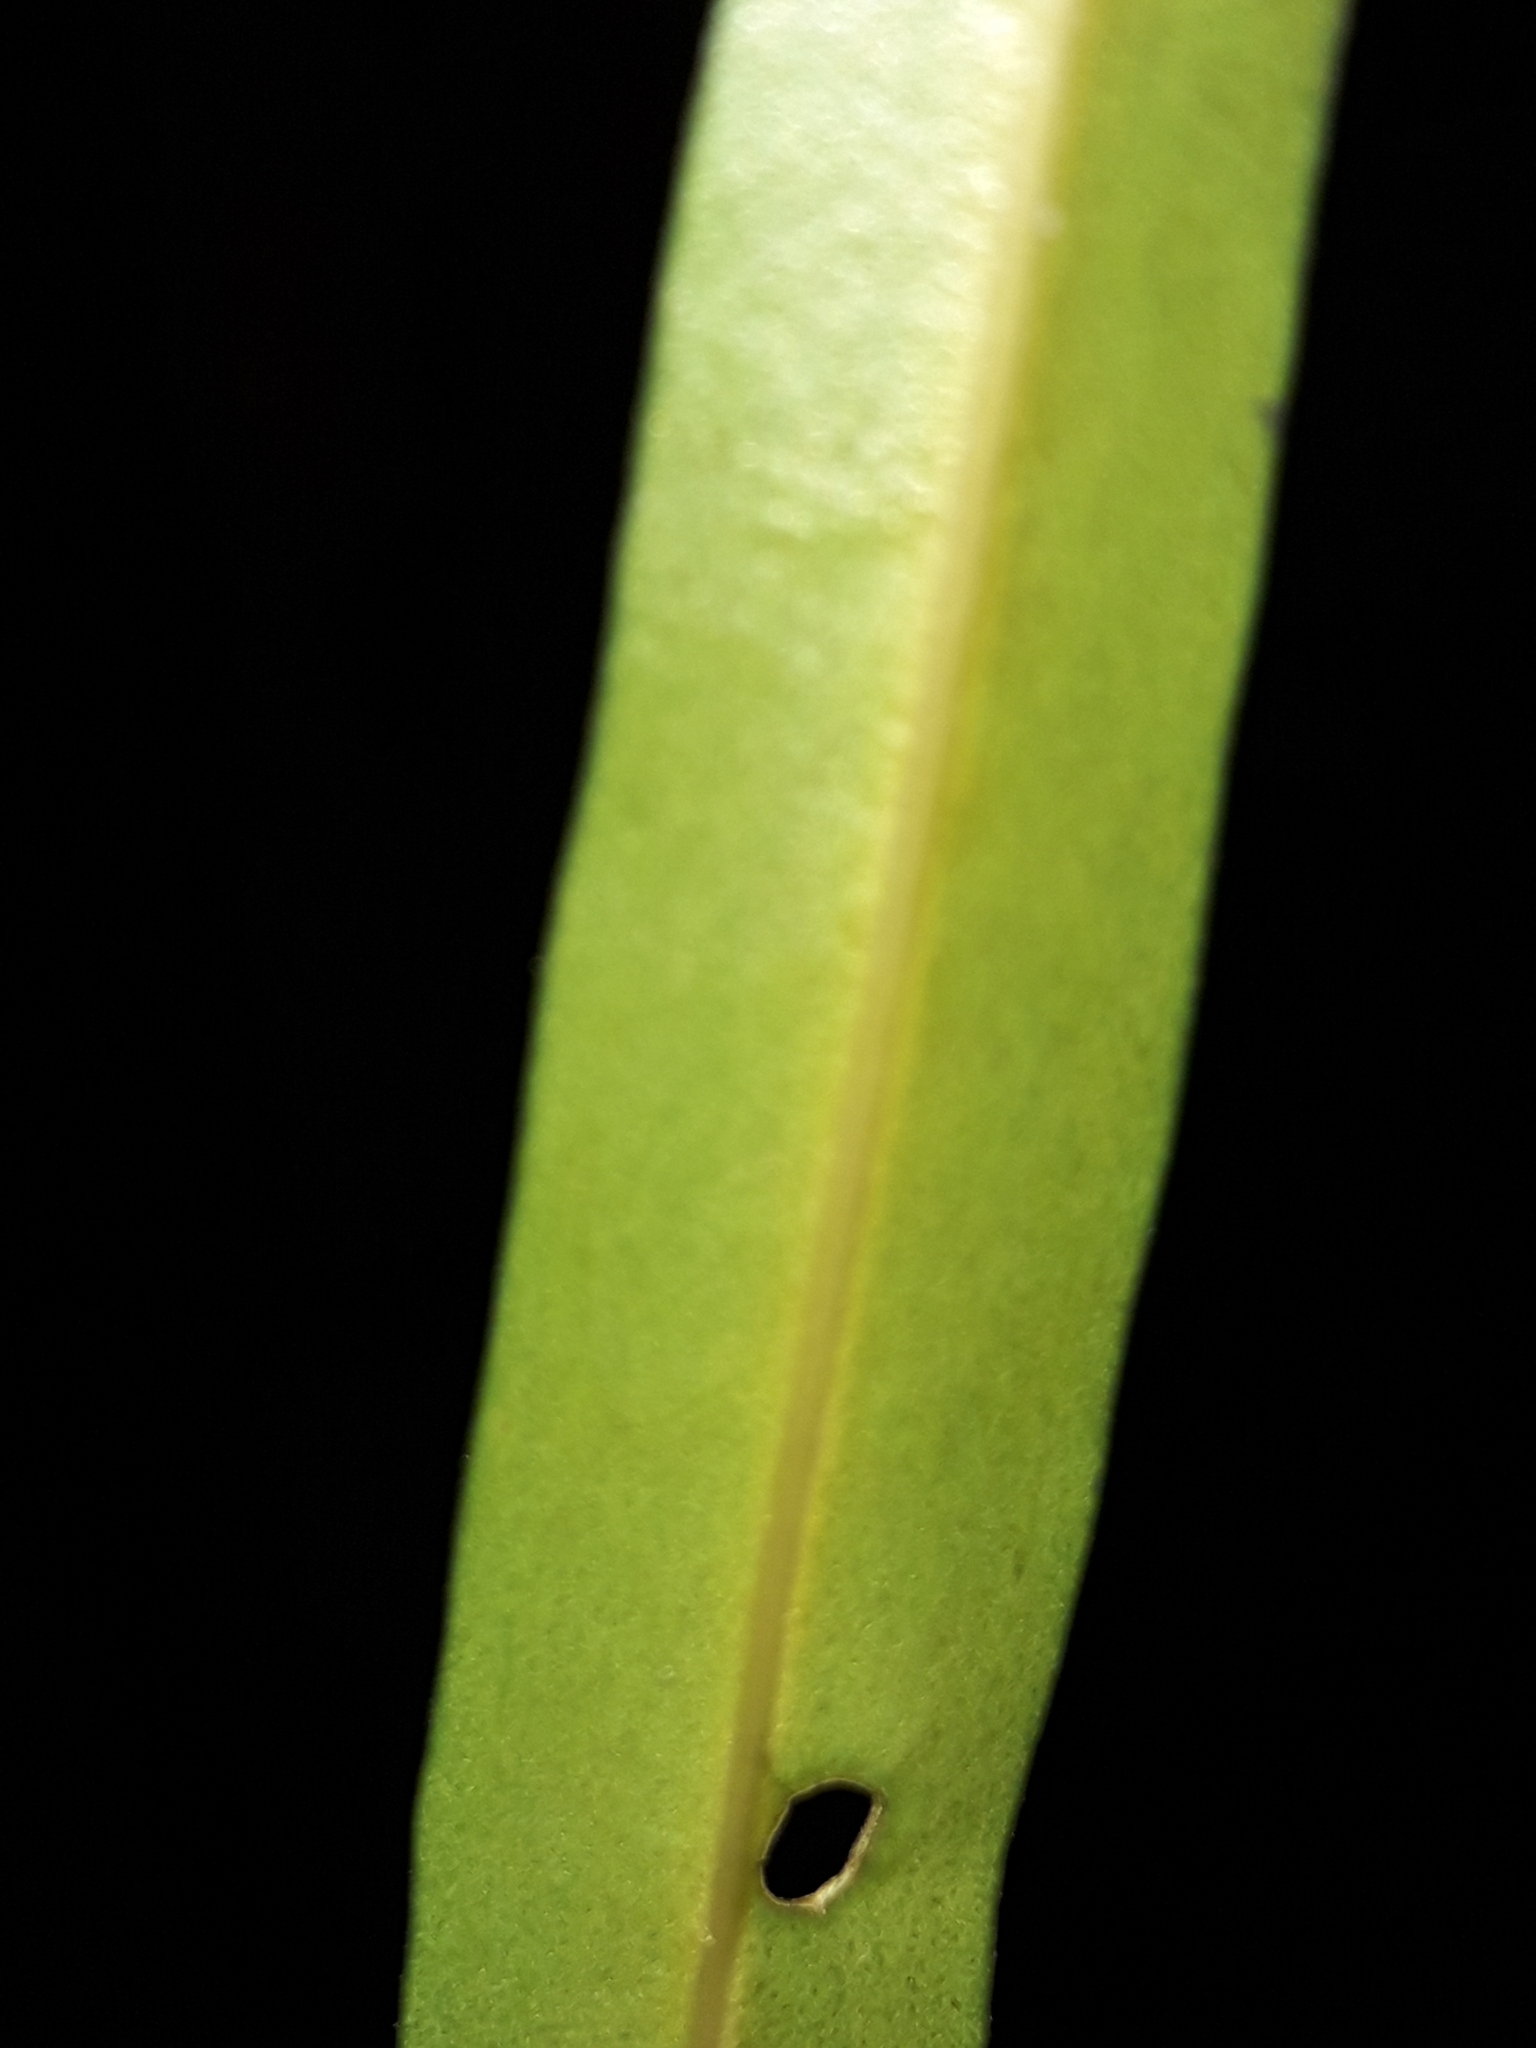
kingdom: Plantae
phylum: Tracheophyta
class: Magnoliopsida
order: Lamiales
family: Oleaceae
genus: Nestegis
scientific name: Nestegis lanceolata
